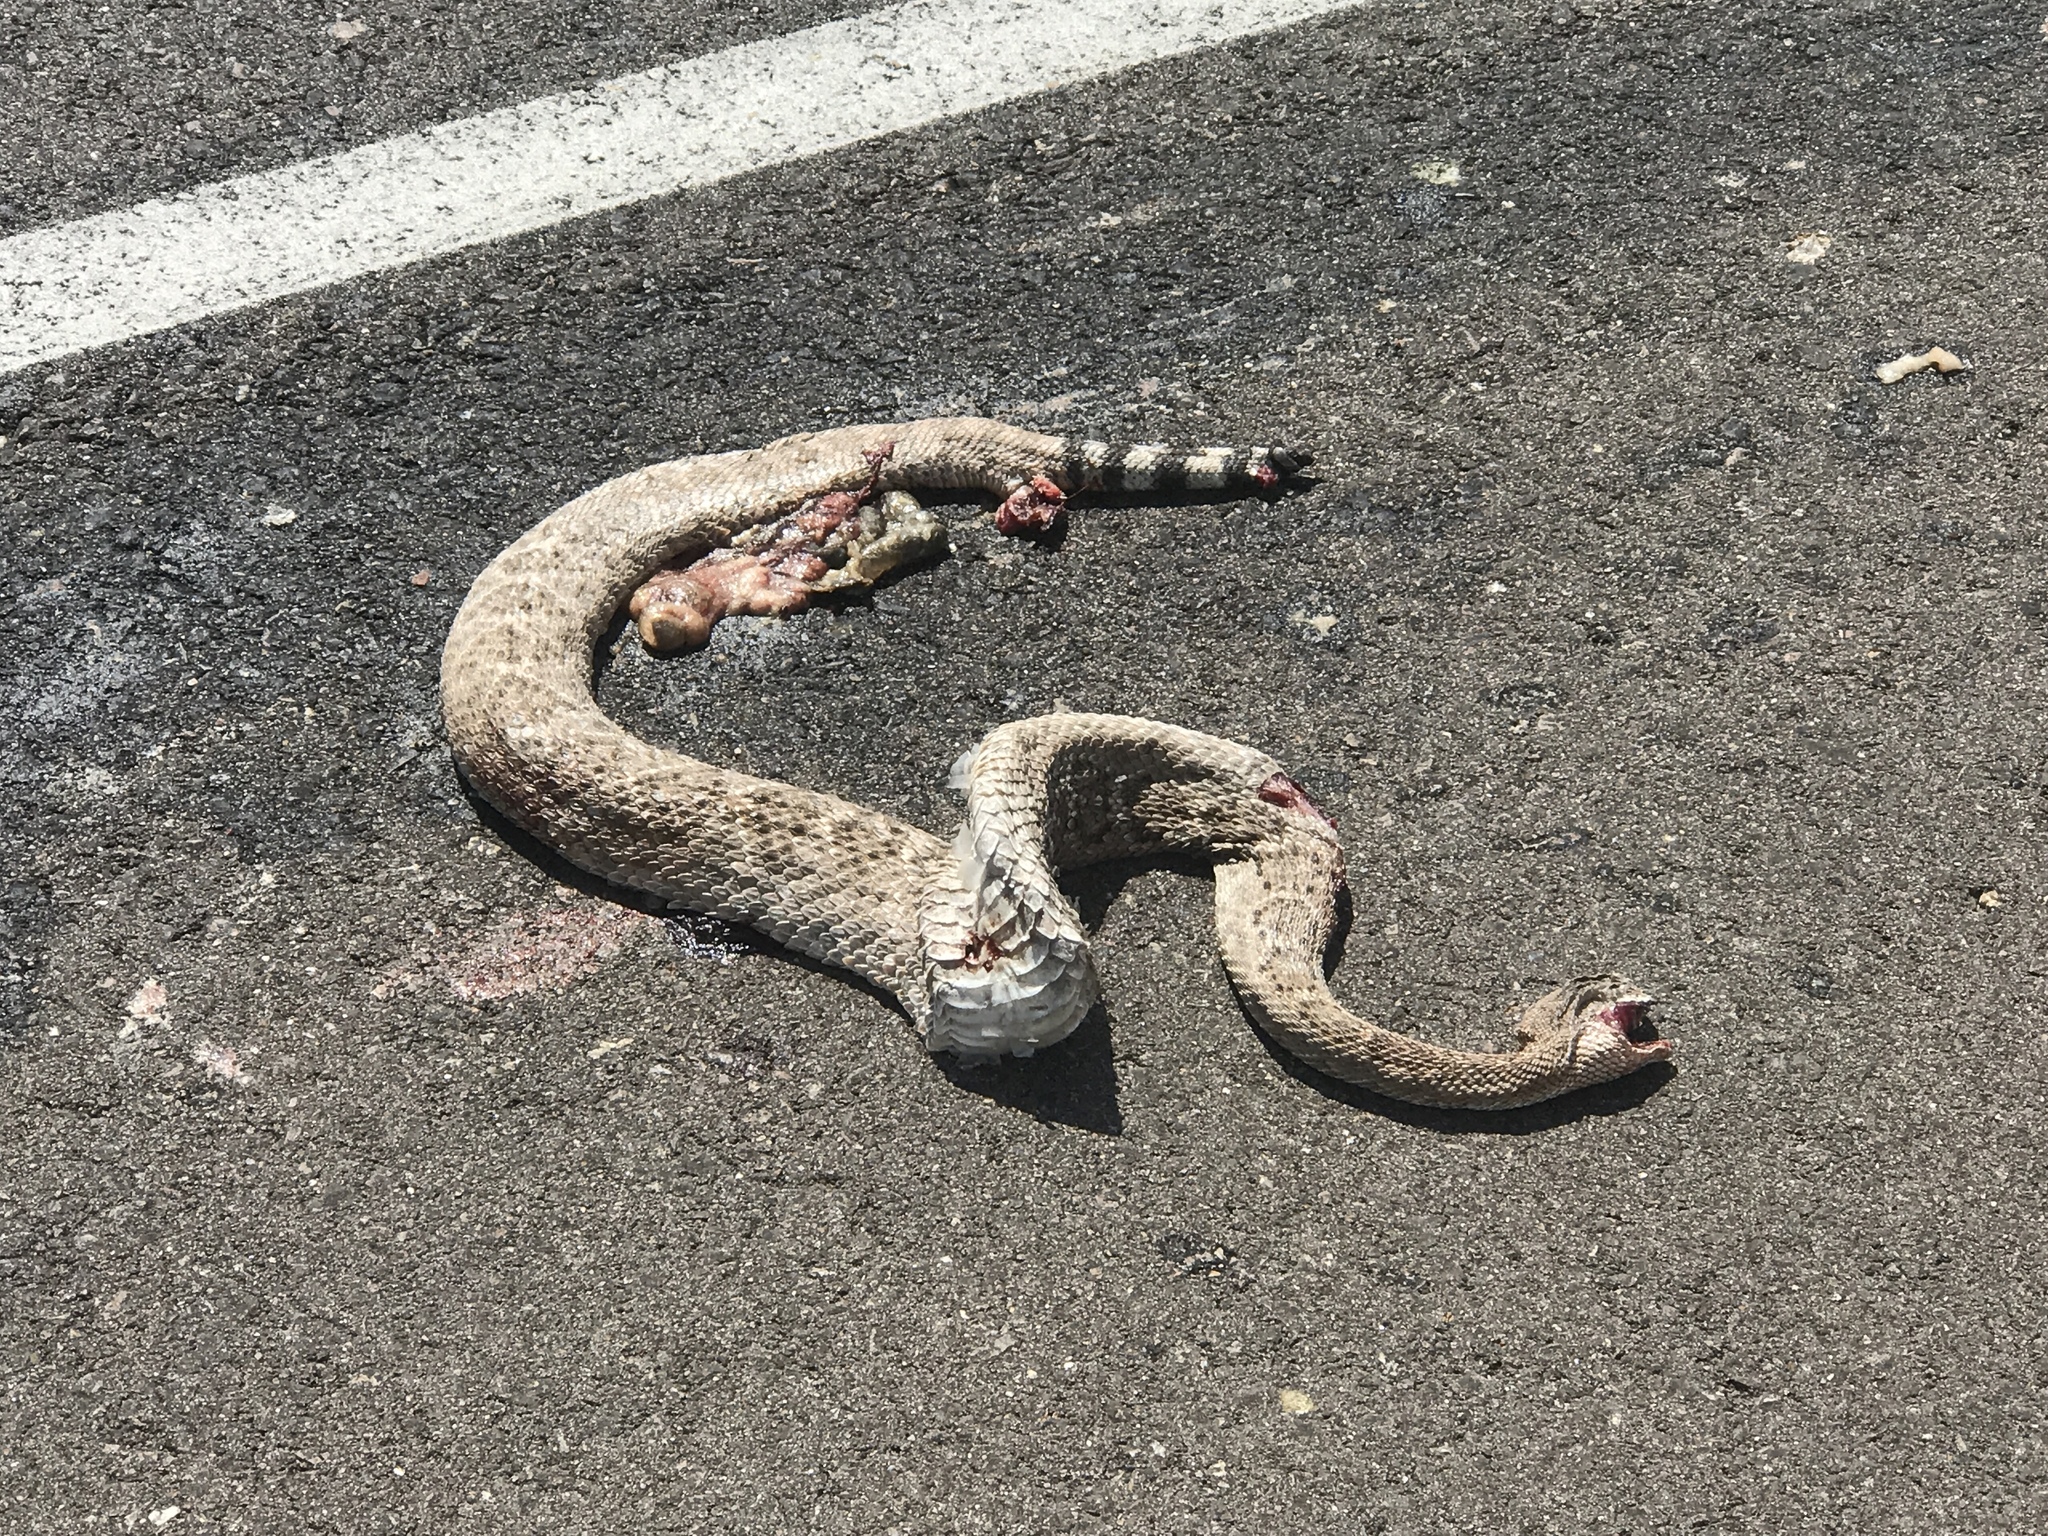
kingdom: Animalia
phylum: Chordata
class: Squamata
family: Viperidae
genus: Crotalus
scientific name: Crotalus atrox
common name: Western diamond-backed rattlesnake
